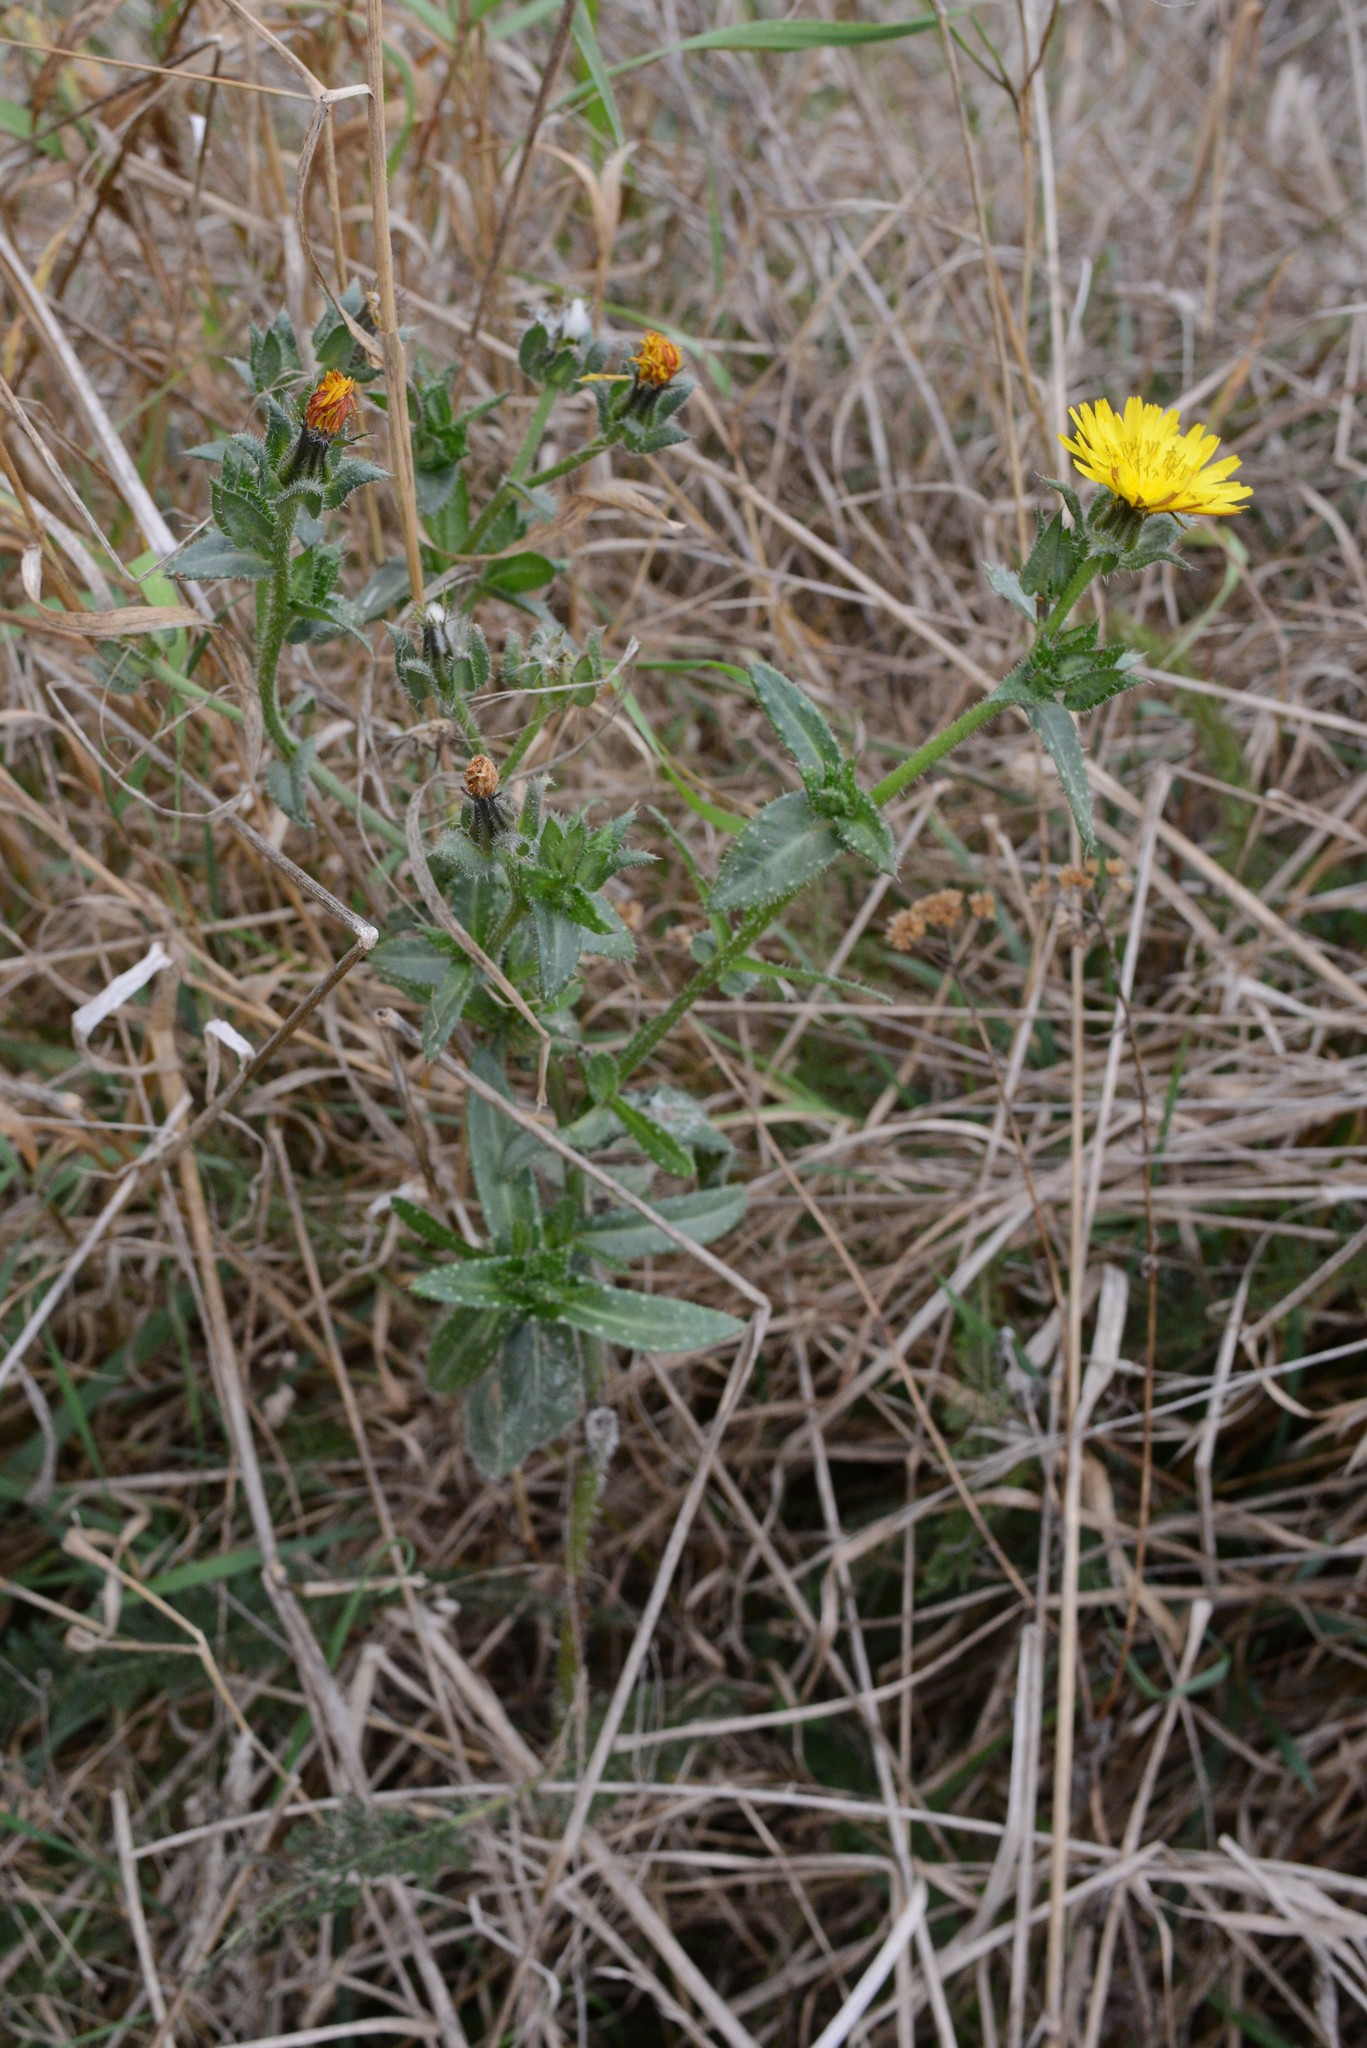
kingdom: Plantae
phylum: Tracheophyta
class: Magnoliopsida
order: Asterales
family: Asteraceae
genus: Helminthotheca
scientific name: Helminthotheca echioides
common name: Ox-tongue
